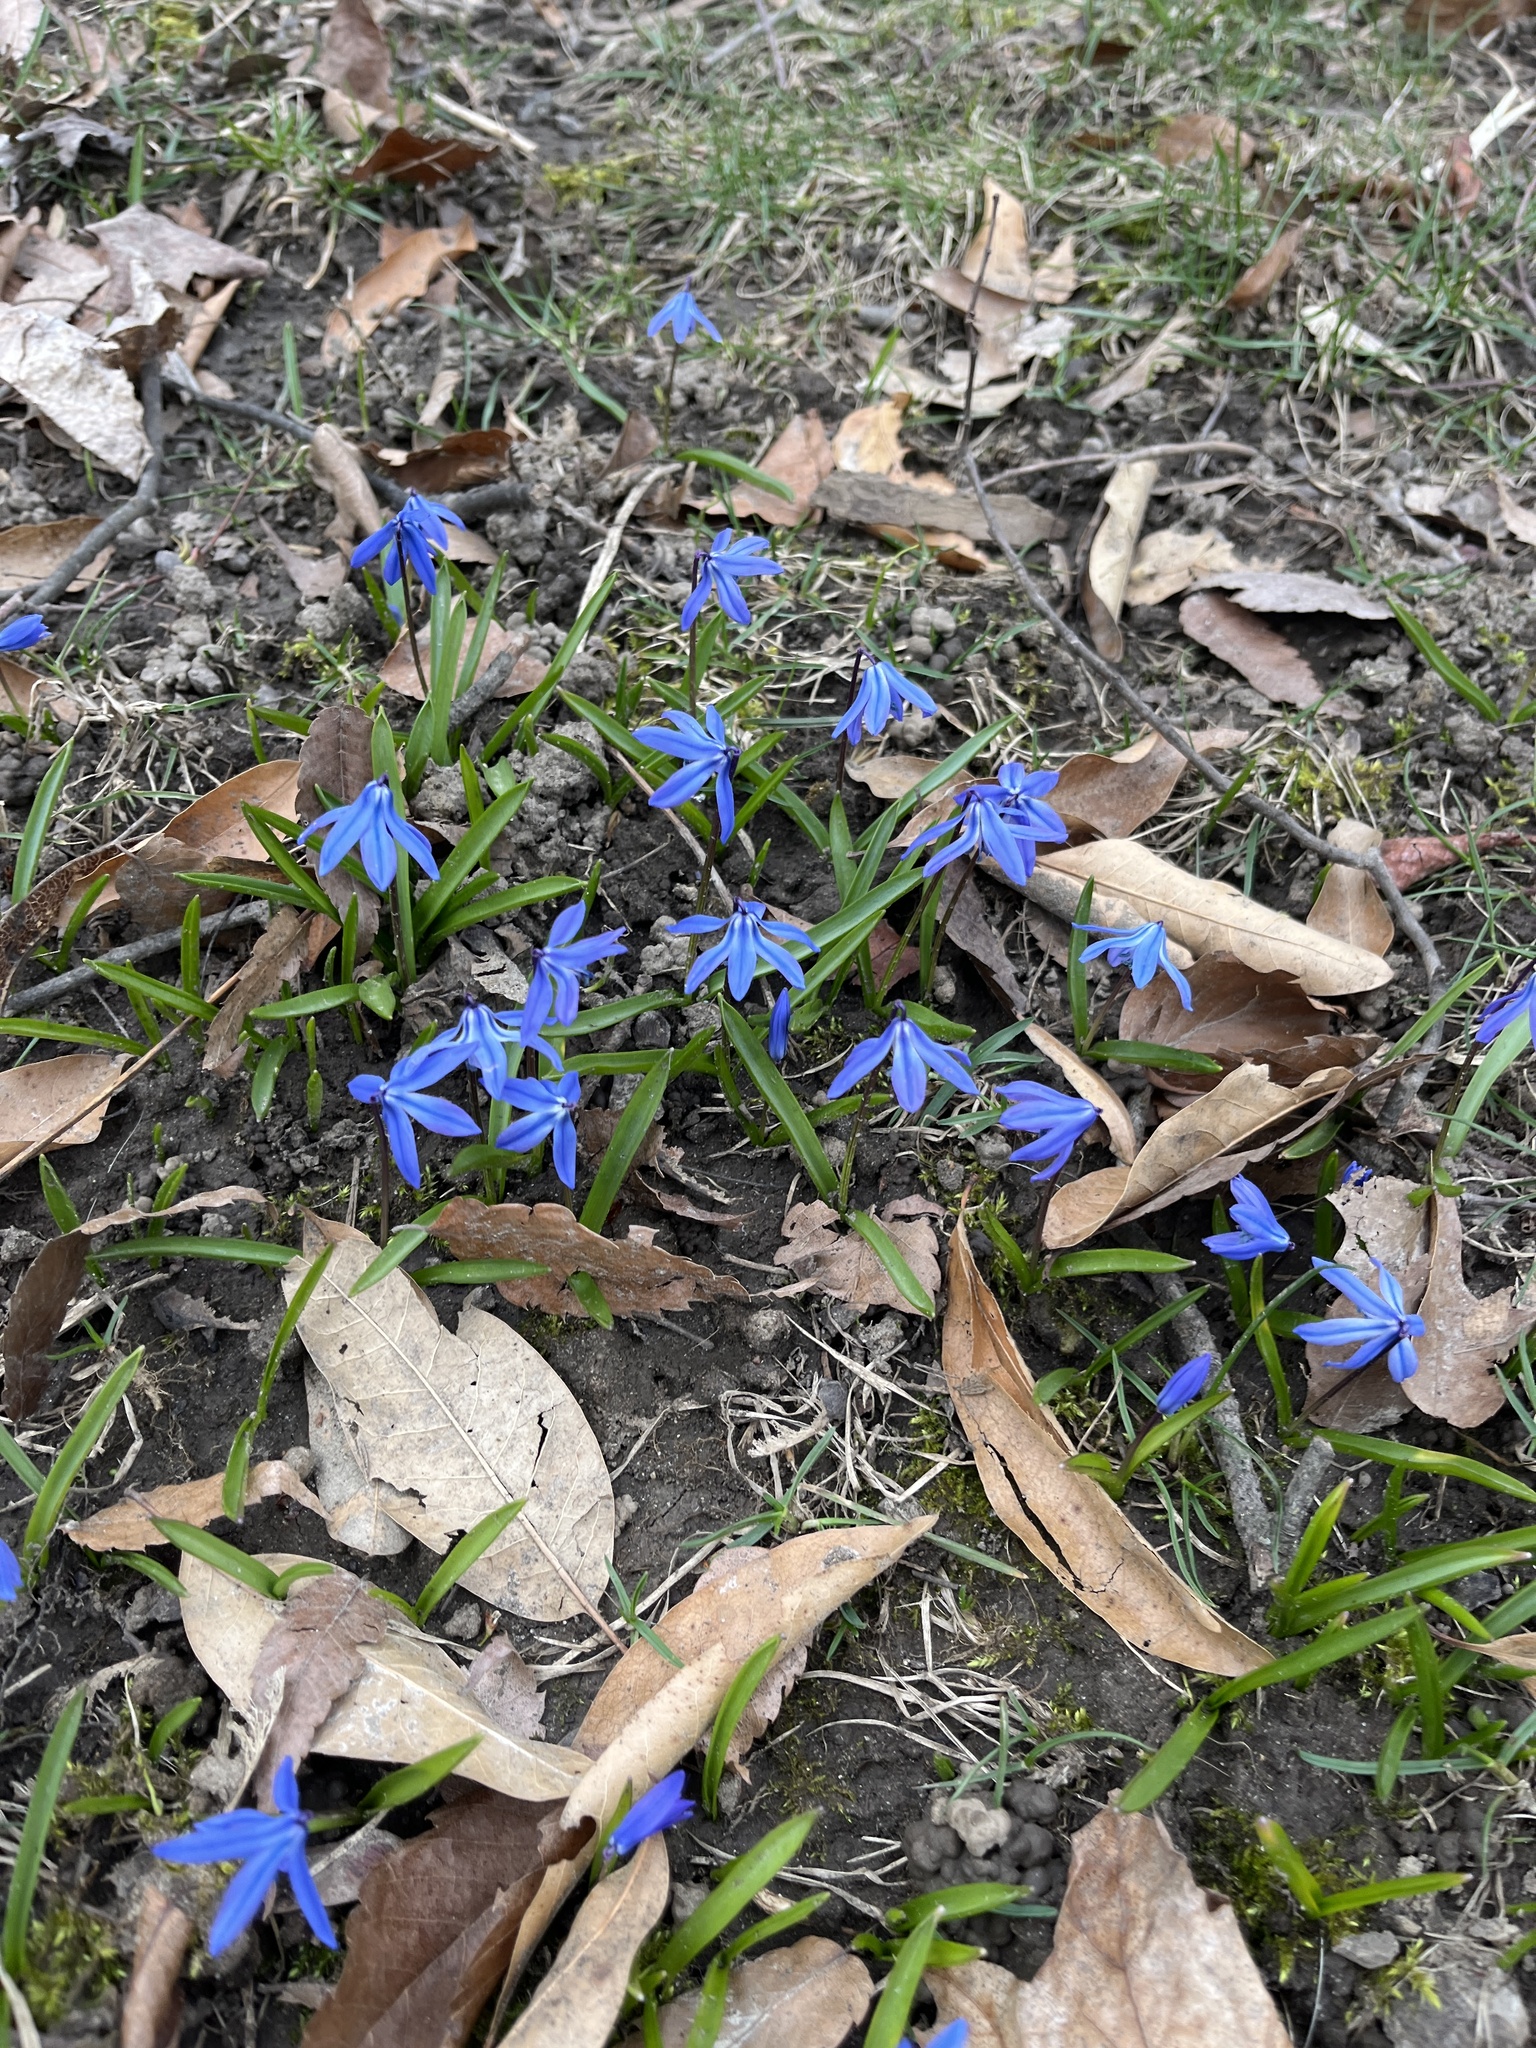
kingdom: Plantae
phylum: Tracheophyta
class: Liliopsida
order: Asparagales
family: Asparagaceae
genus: Scilla
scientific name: Scilla siberica
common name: Siberian squill
